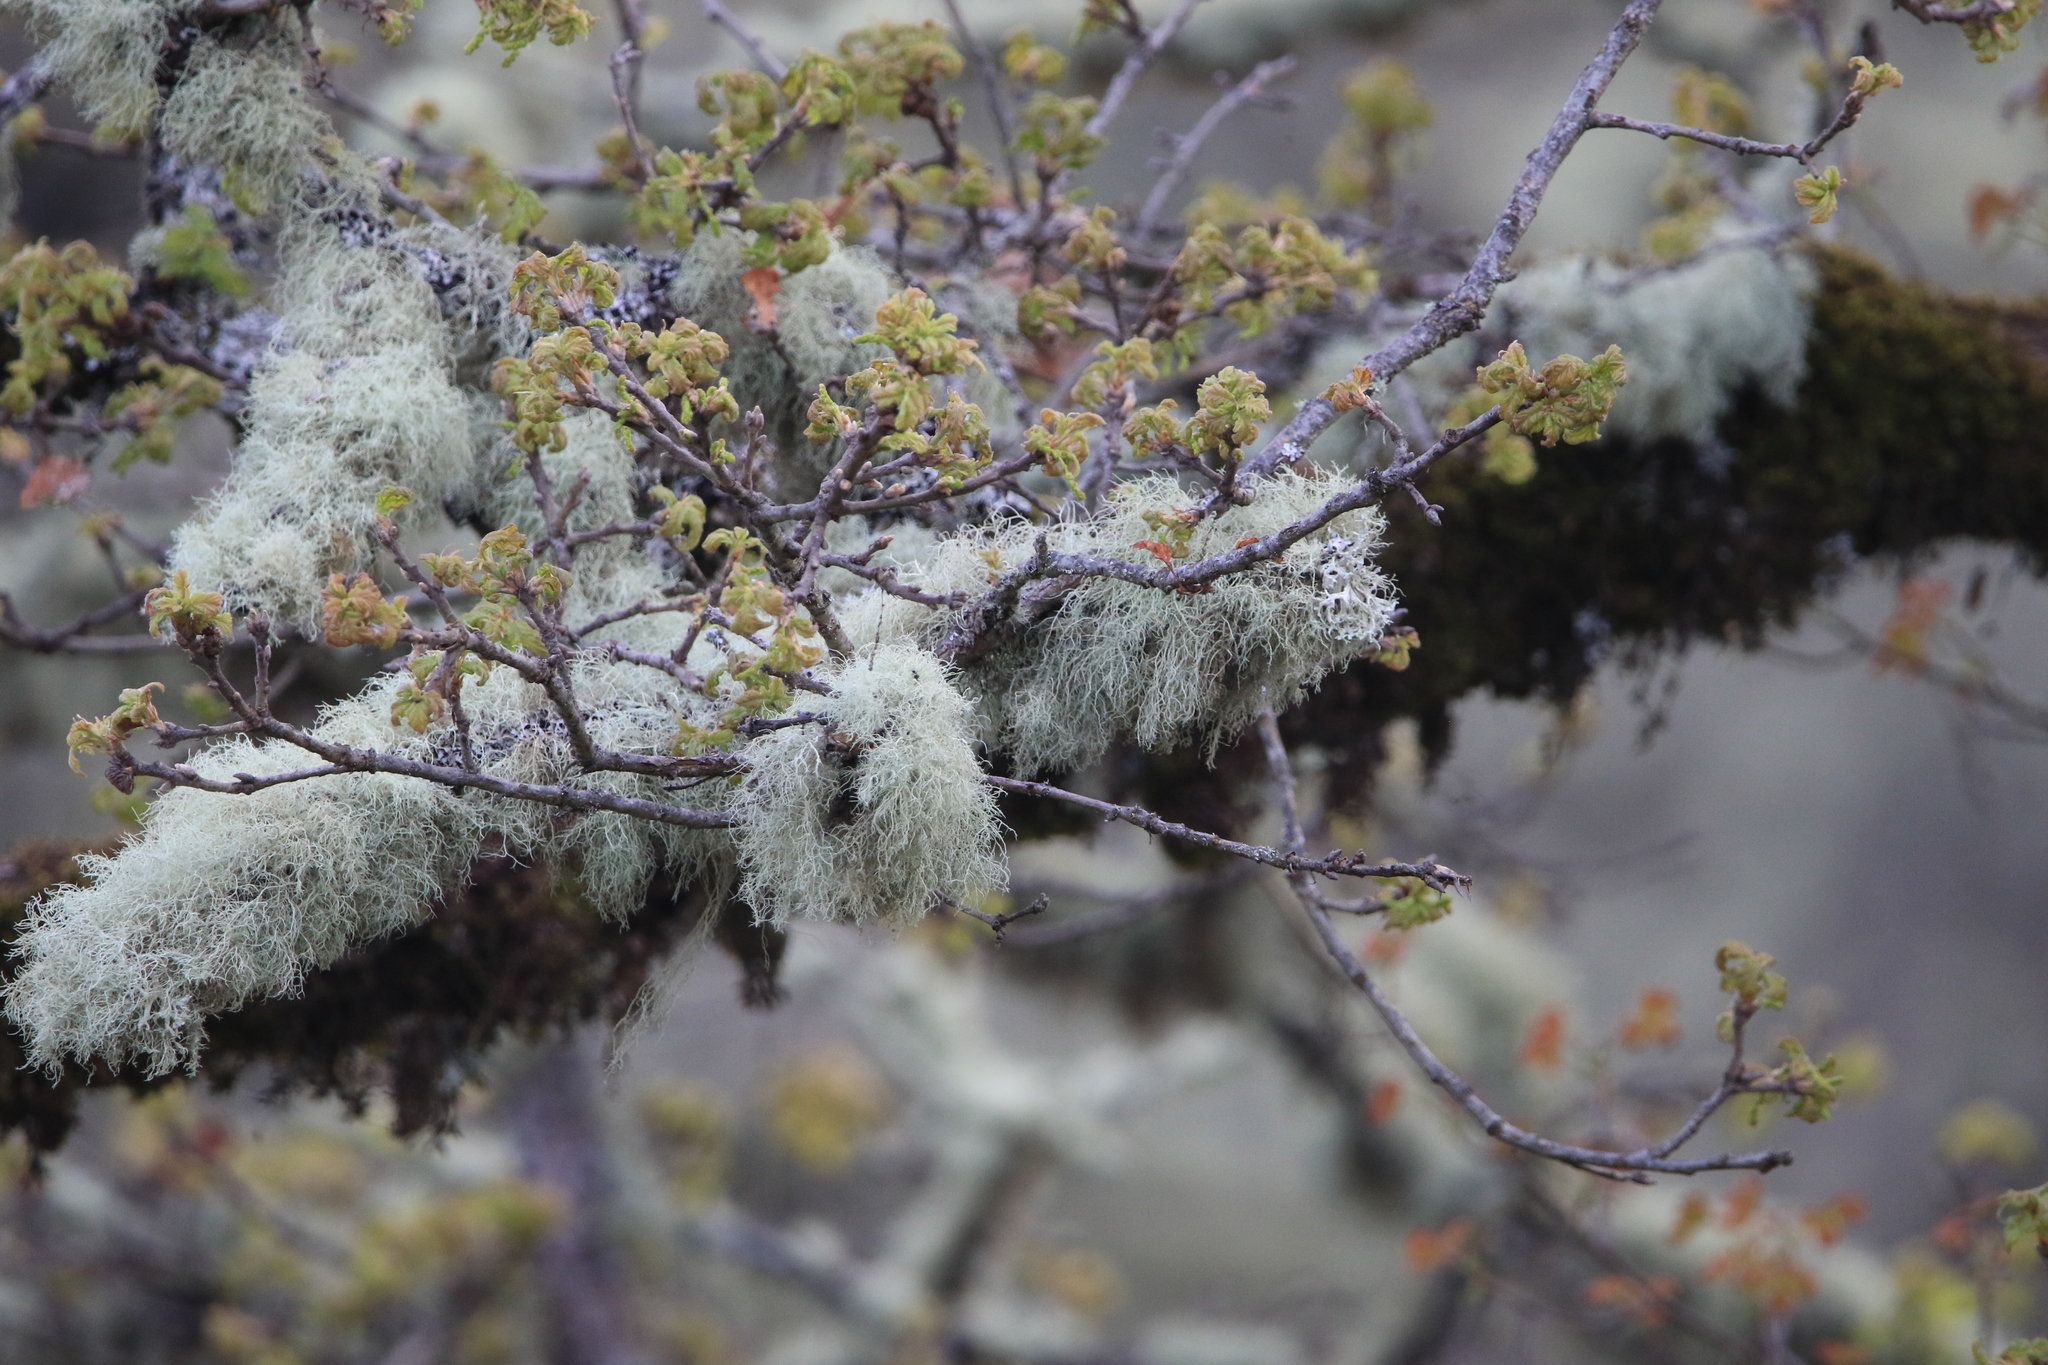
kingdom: Plantae
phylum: Tracheophyta
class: Magnoliopsida
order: Fagales
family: Fagaceae
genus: Quercus
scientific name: Quercus garryana
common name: Garry oak
